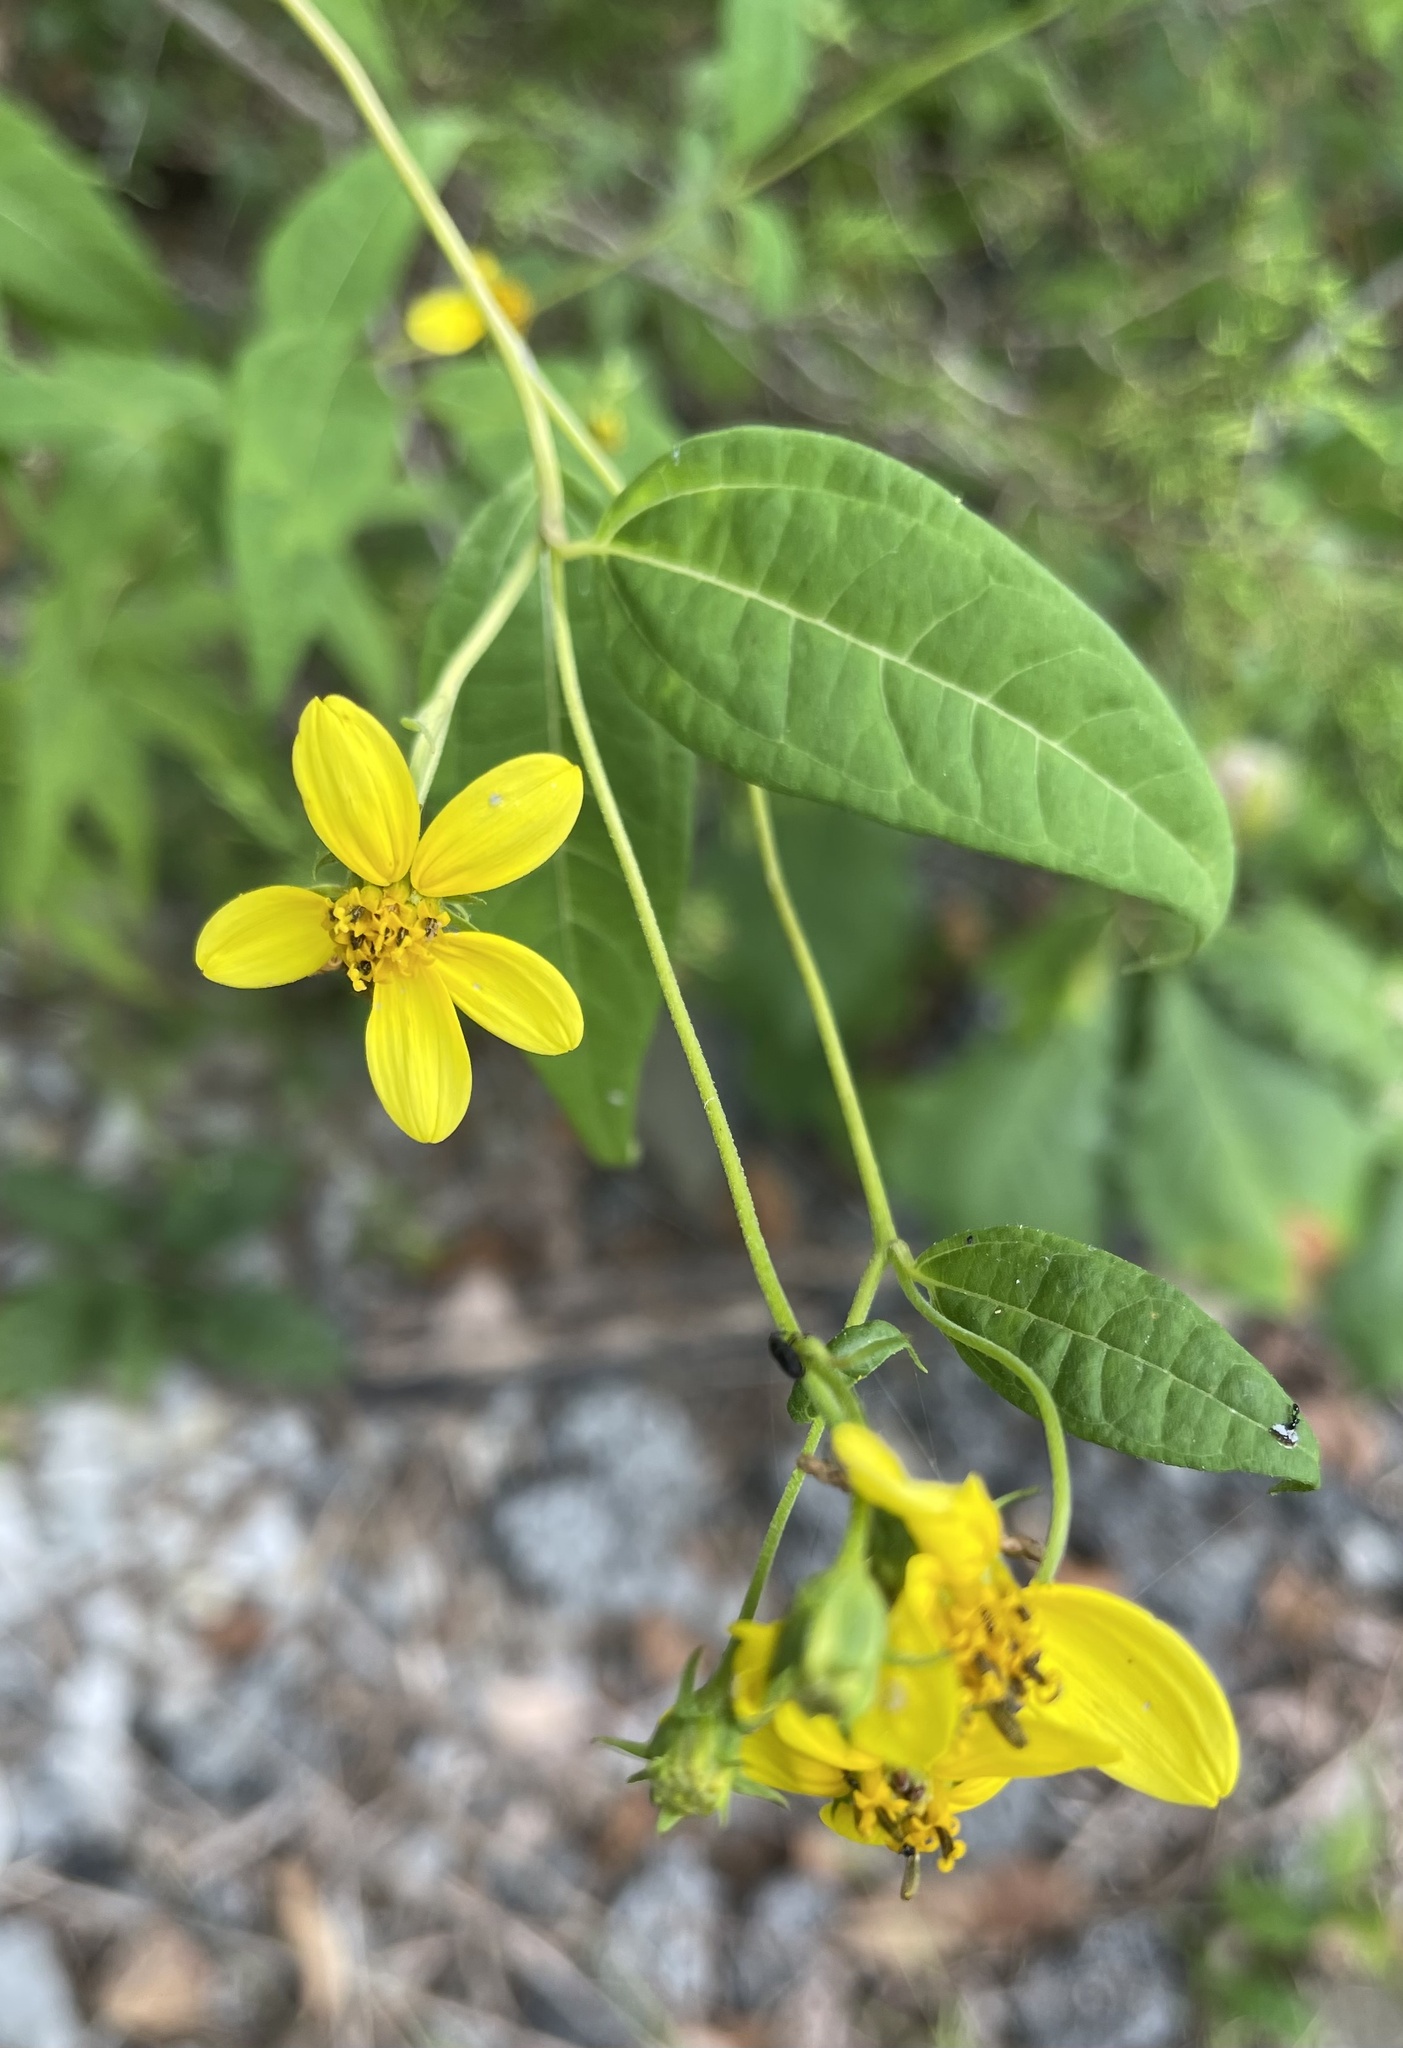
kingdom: Plantae
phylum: Tracheophyta
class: Magnoliopsida
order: Asterales
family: Asteraceae
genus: Helianthus
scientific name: Helianthus microcephalus
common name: Woodland sunflower
